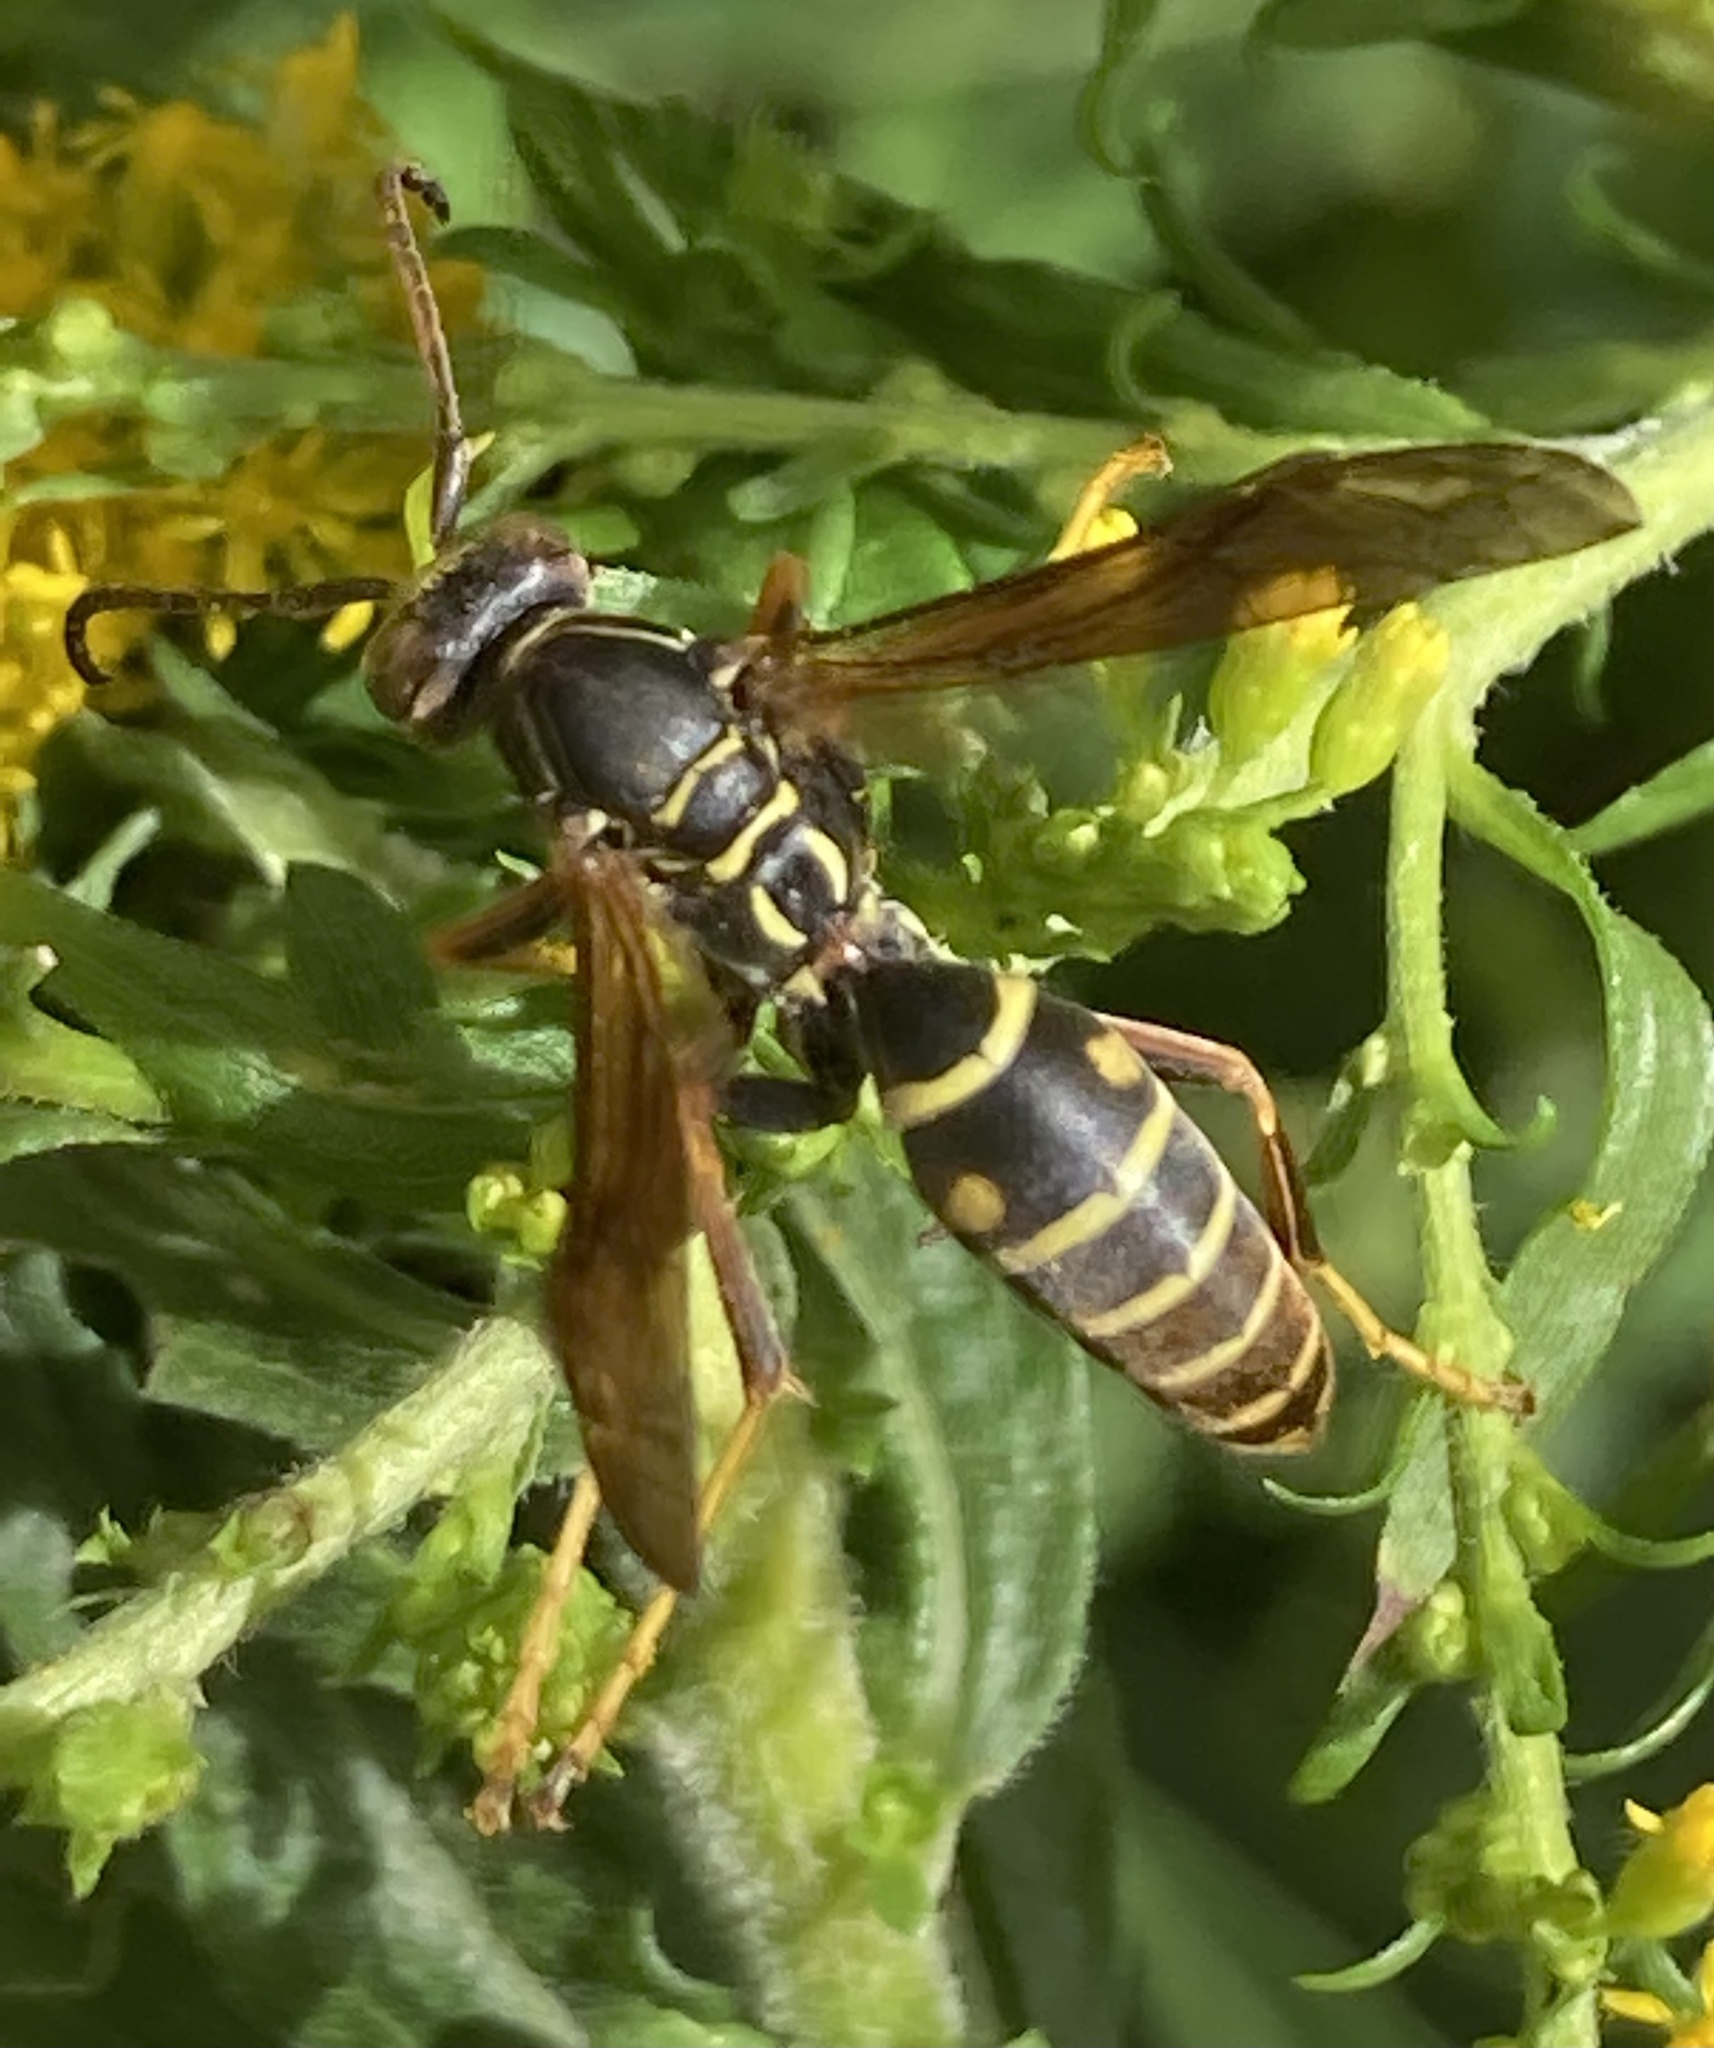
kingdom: Animalia
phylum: Arthropoda
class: Insecta
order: Hymenoptera
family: Eumenidae
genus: Polistes
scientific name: Polistes fuscatus
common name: Dark paper wasp
